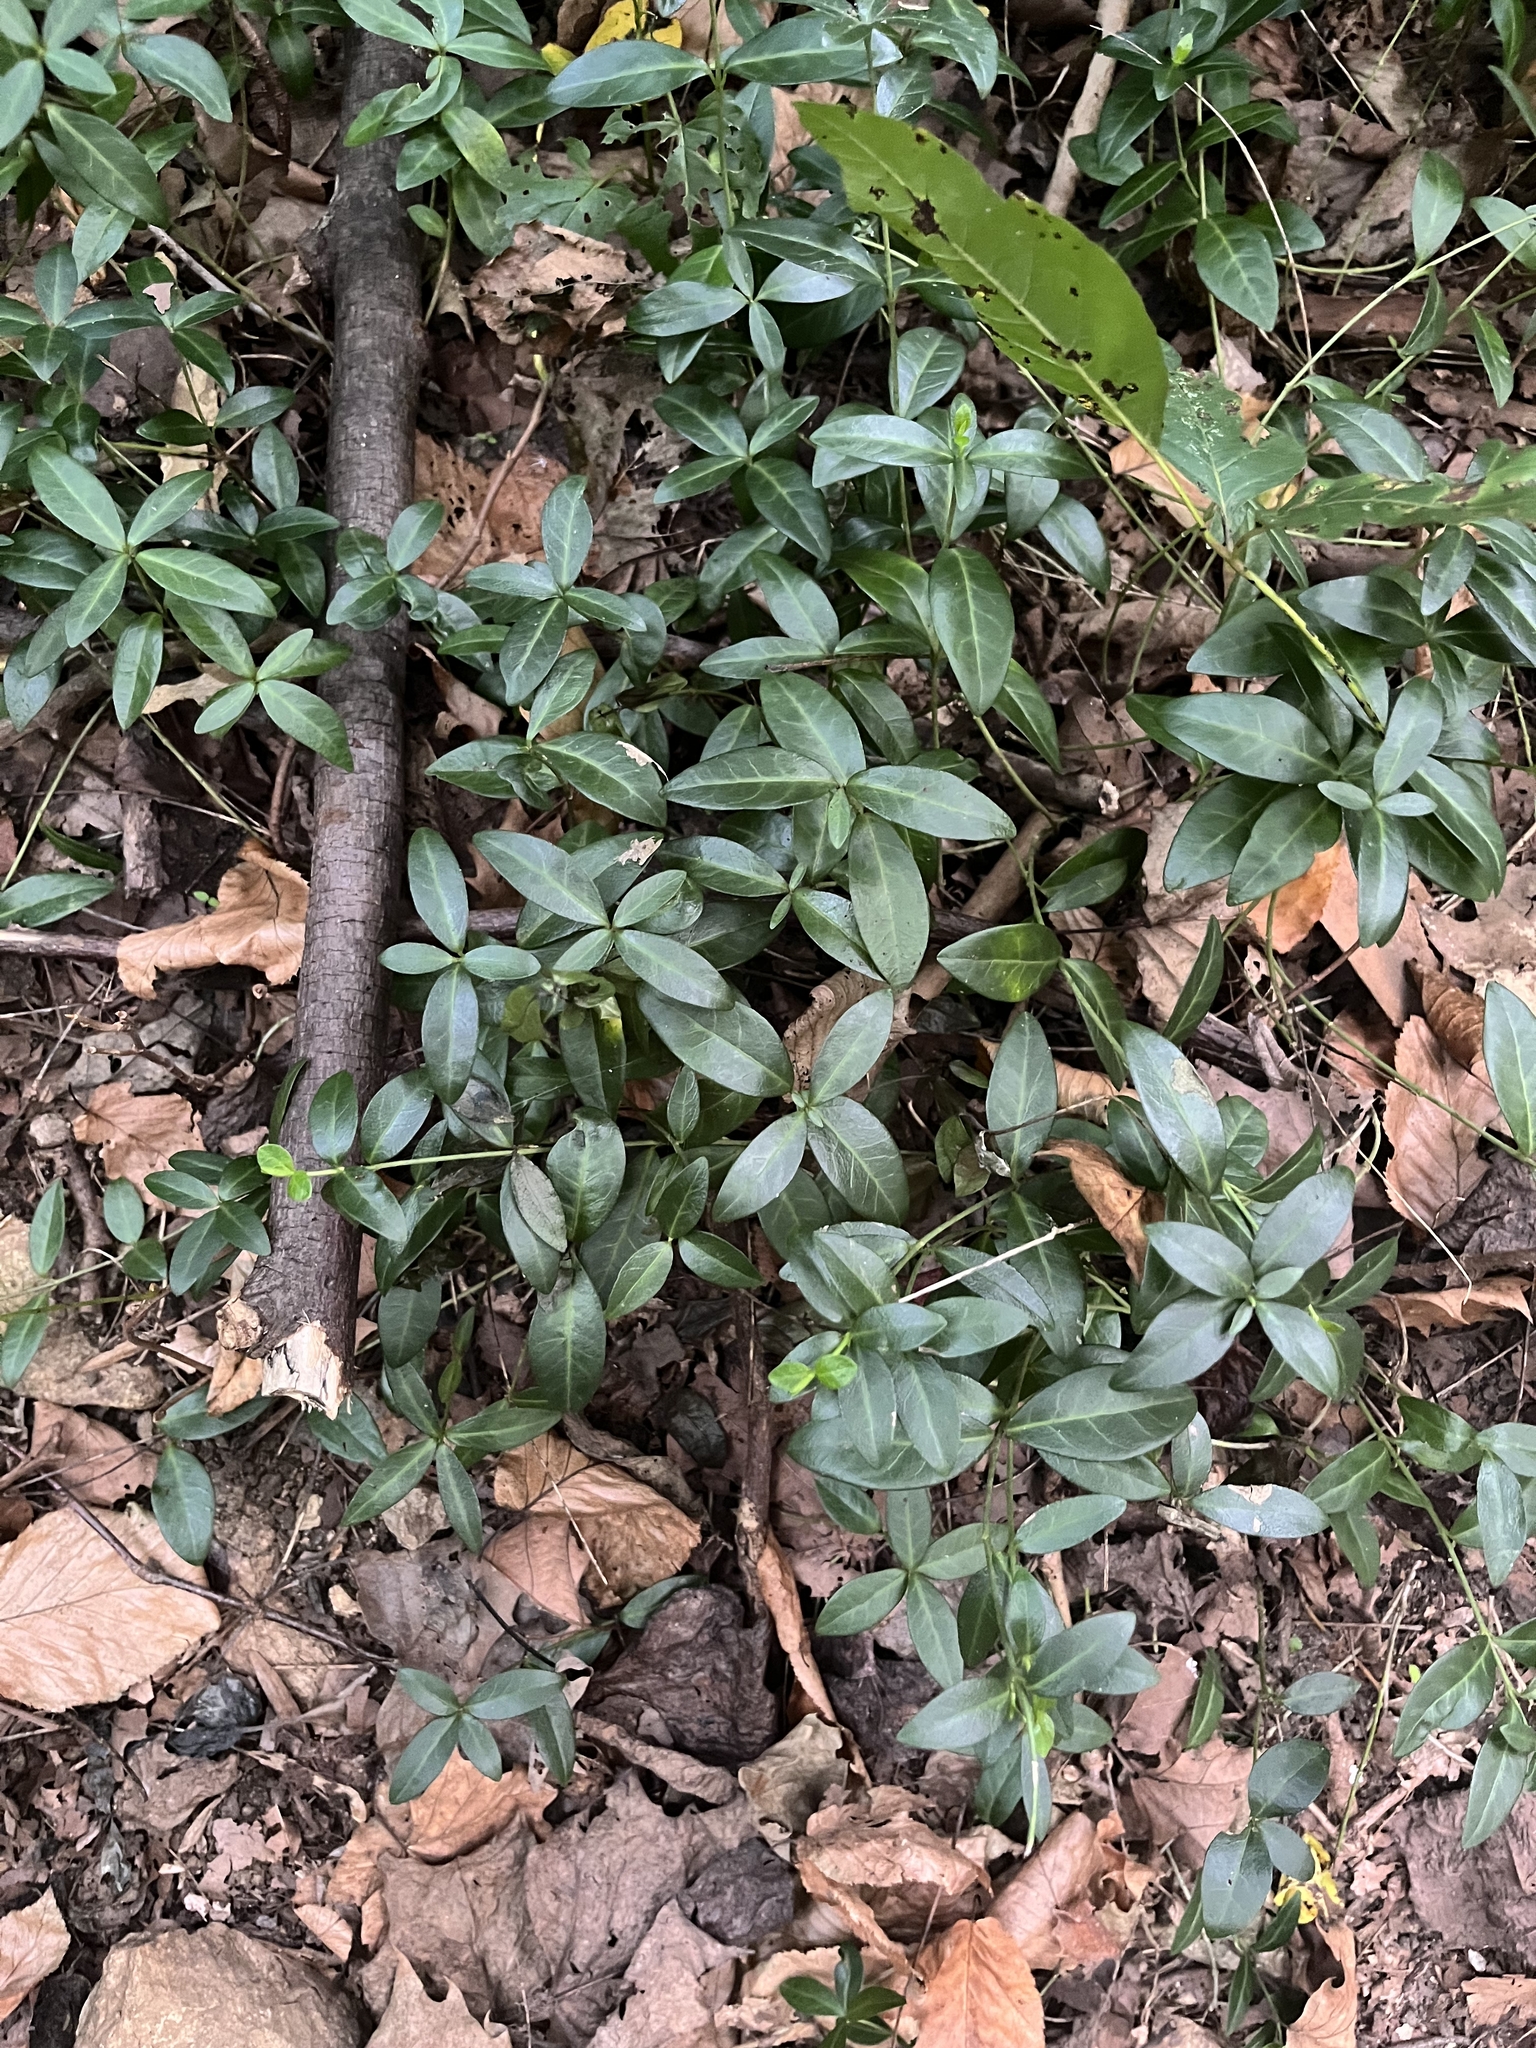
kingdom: Plantae
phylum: Tracheophyta
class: Magnoliopsida
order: Gentianales
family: Apocynaceae
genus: Vinca
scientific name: Vinca minor
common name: Lesser periwinkle
